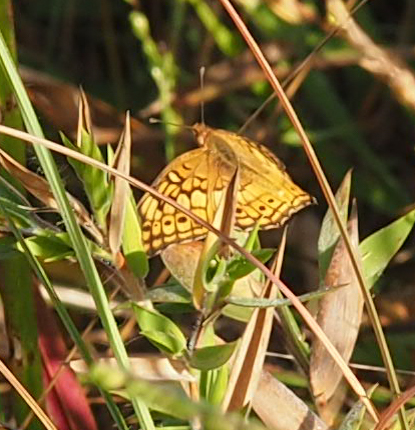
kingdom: Animalia
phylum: Arthropoda
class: Insecta
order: Lepidoptera
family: Nymphalidae
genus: Euptoieta
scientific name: Euptoieta claudia
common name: Variegated fritillary
